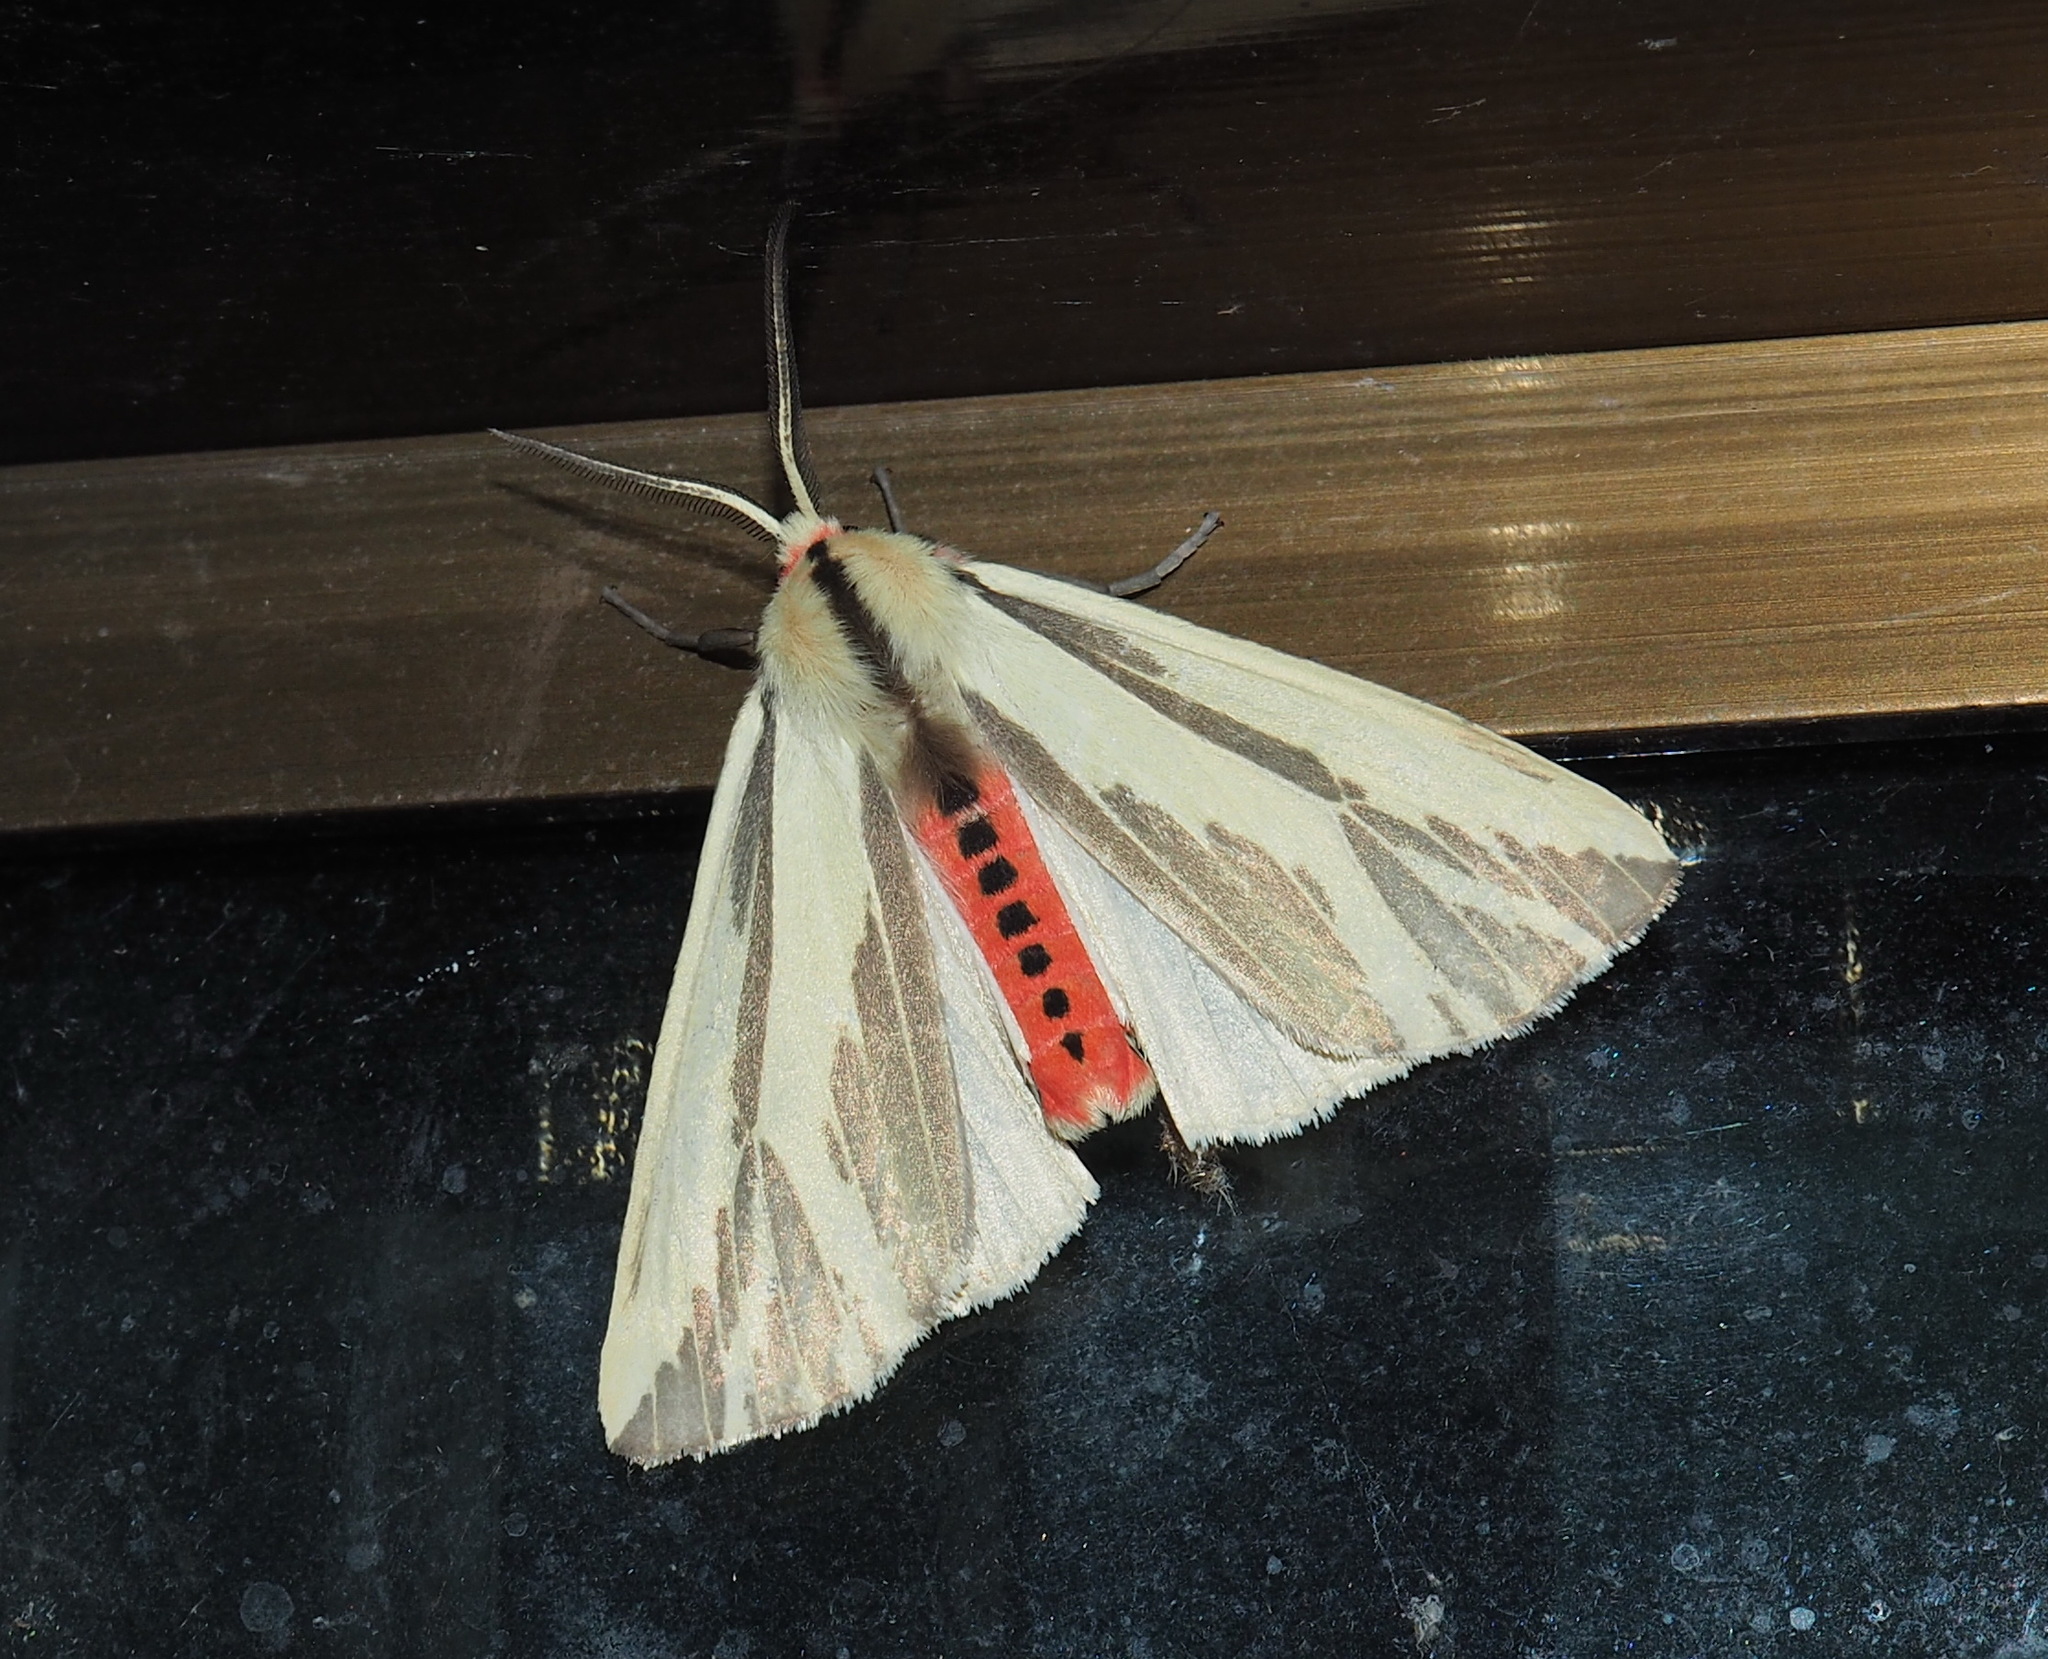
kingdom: Animalia
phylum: Arthropoda
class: Insecta
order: Lepidoptera
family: Erebidae
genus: Eospilarctia
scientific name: Eospilarctia nehallenia
